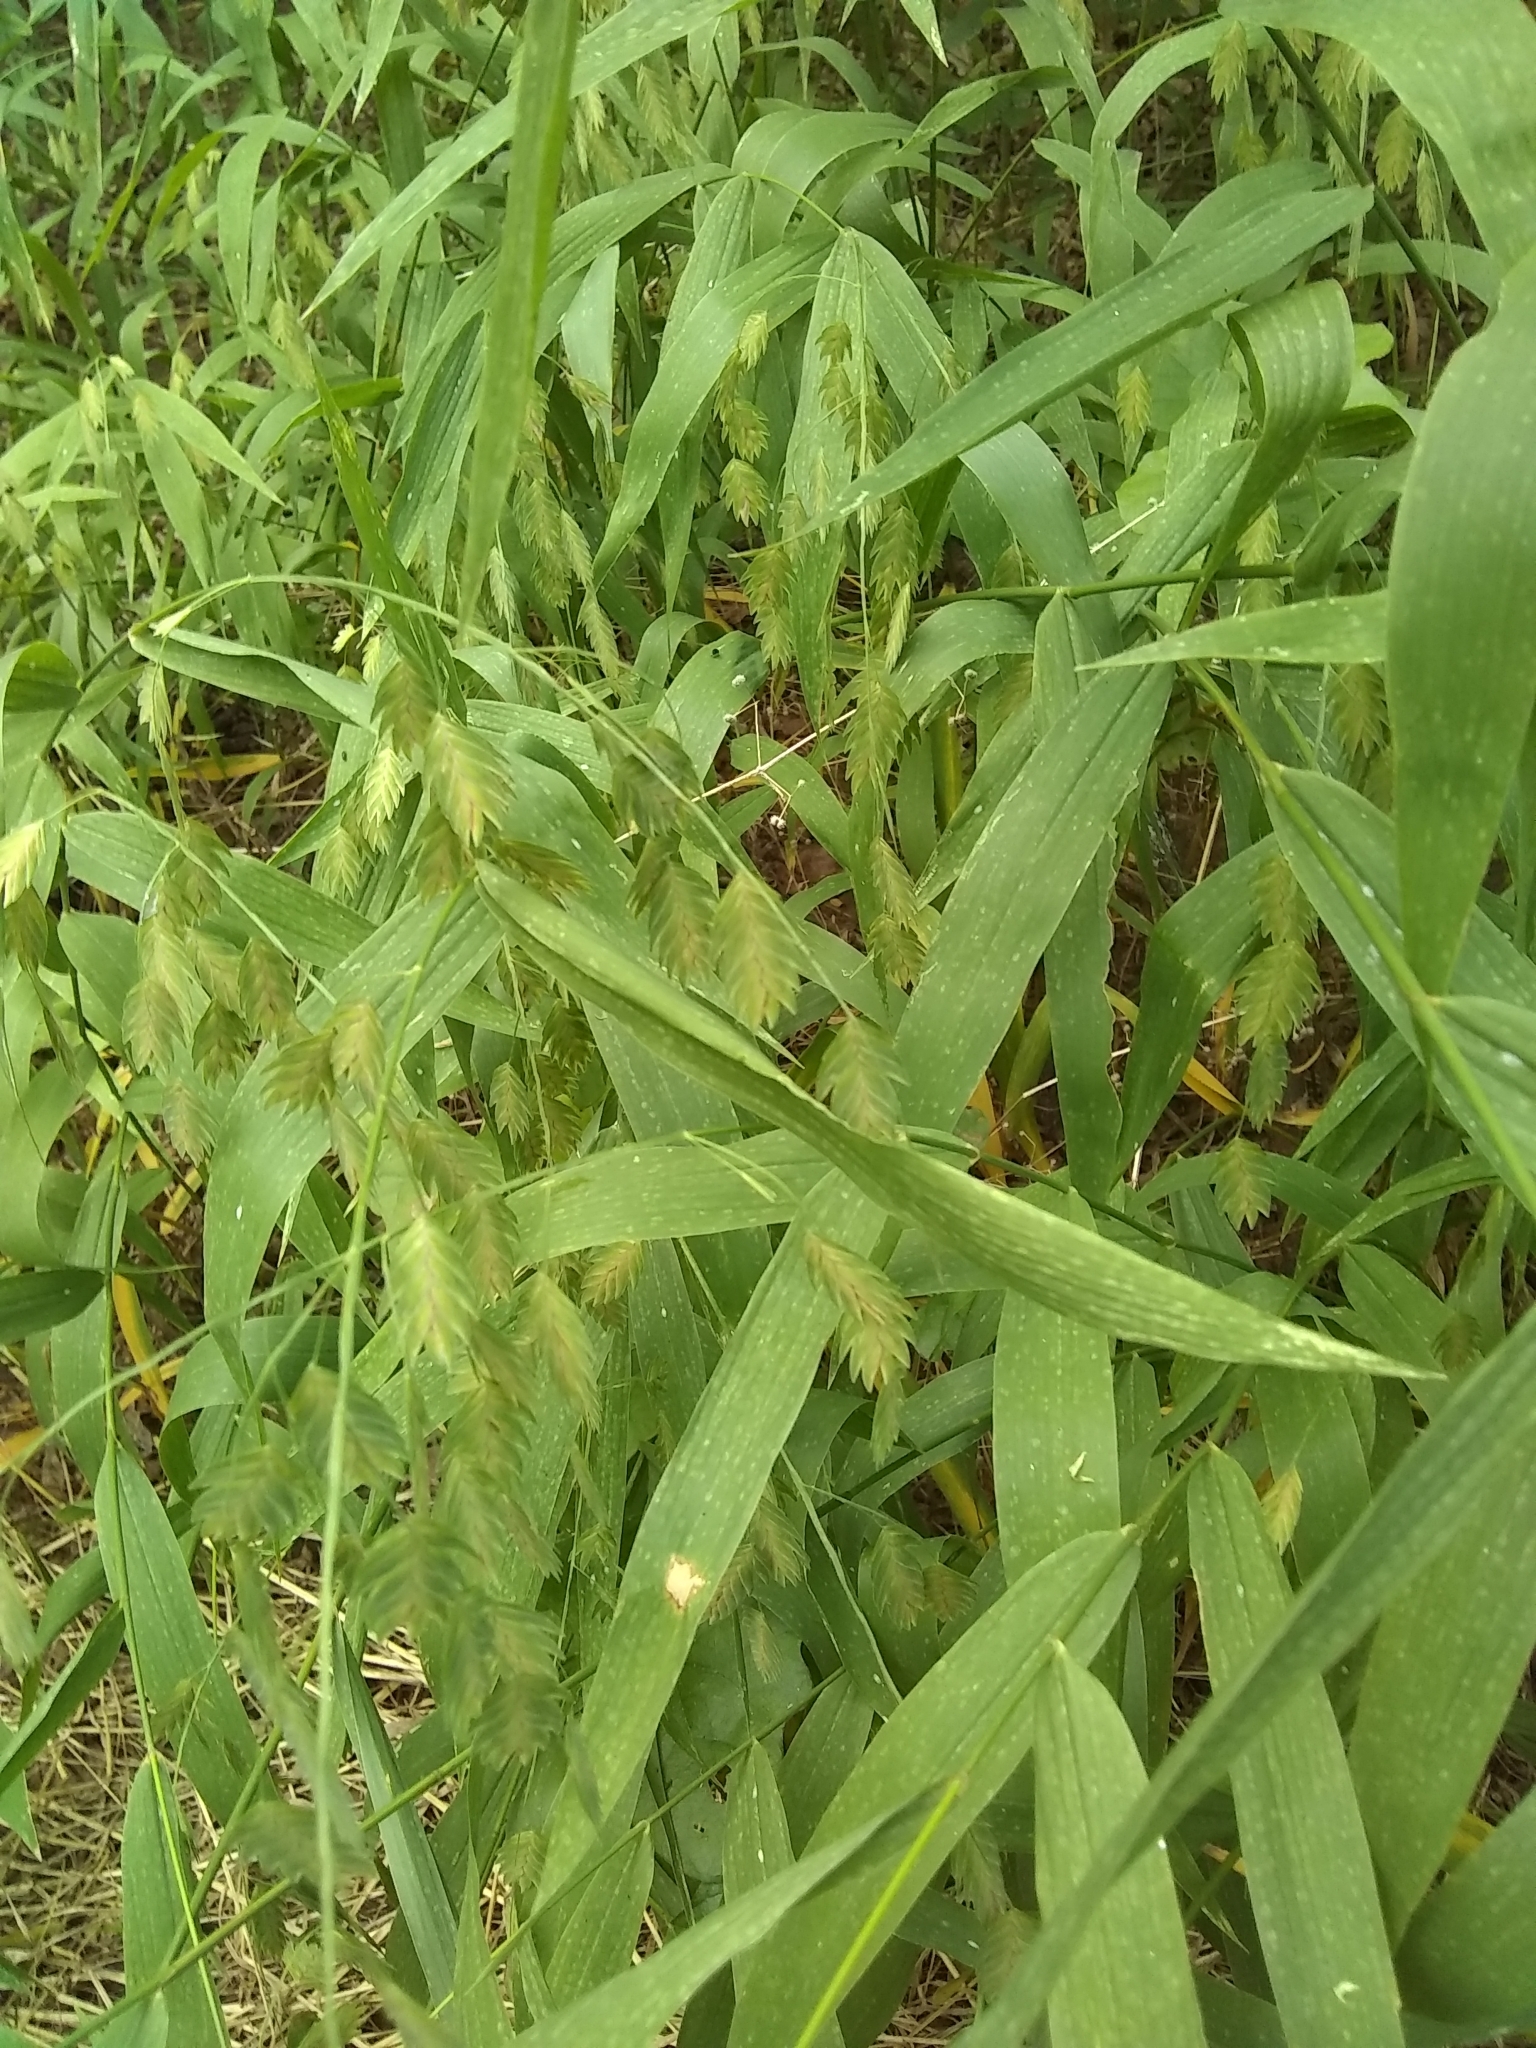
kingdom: Plantae
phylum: Tracheophyta
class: Liliopsida
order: Poales
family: Poaceae
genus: Chasmanthium
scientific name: Chasmanthium latifolium
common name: Broad-leaved chasmanthium
